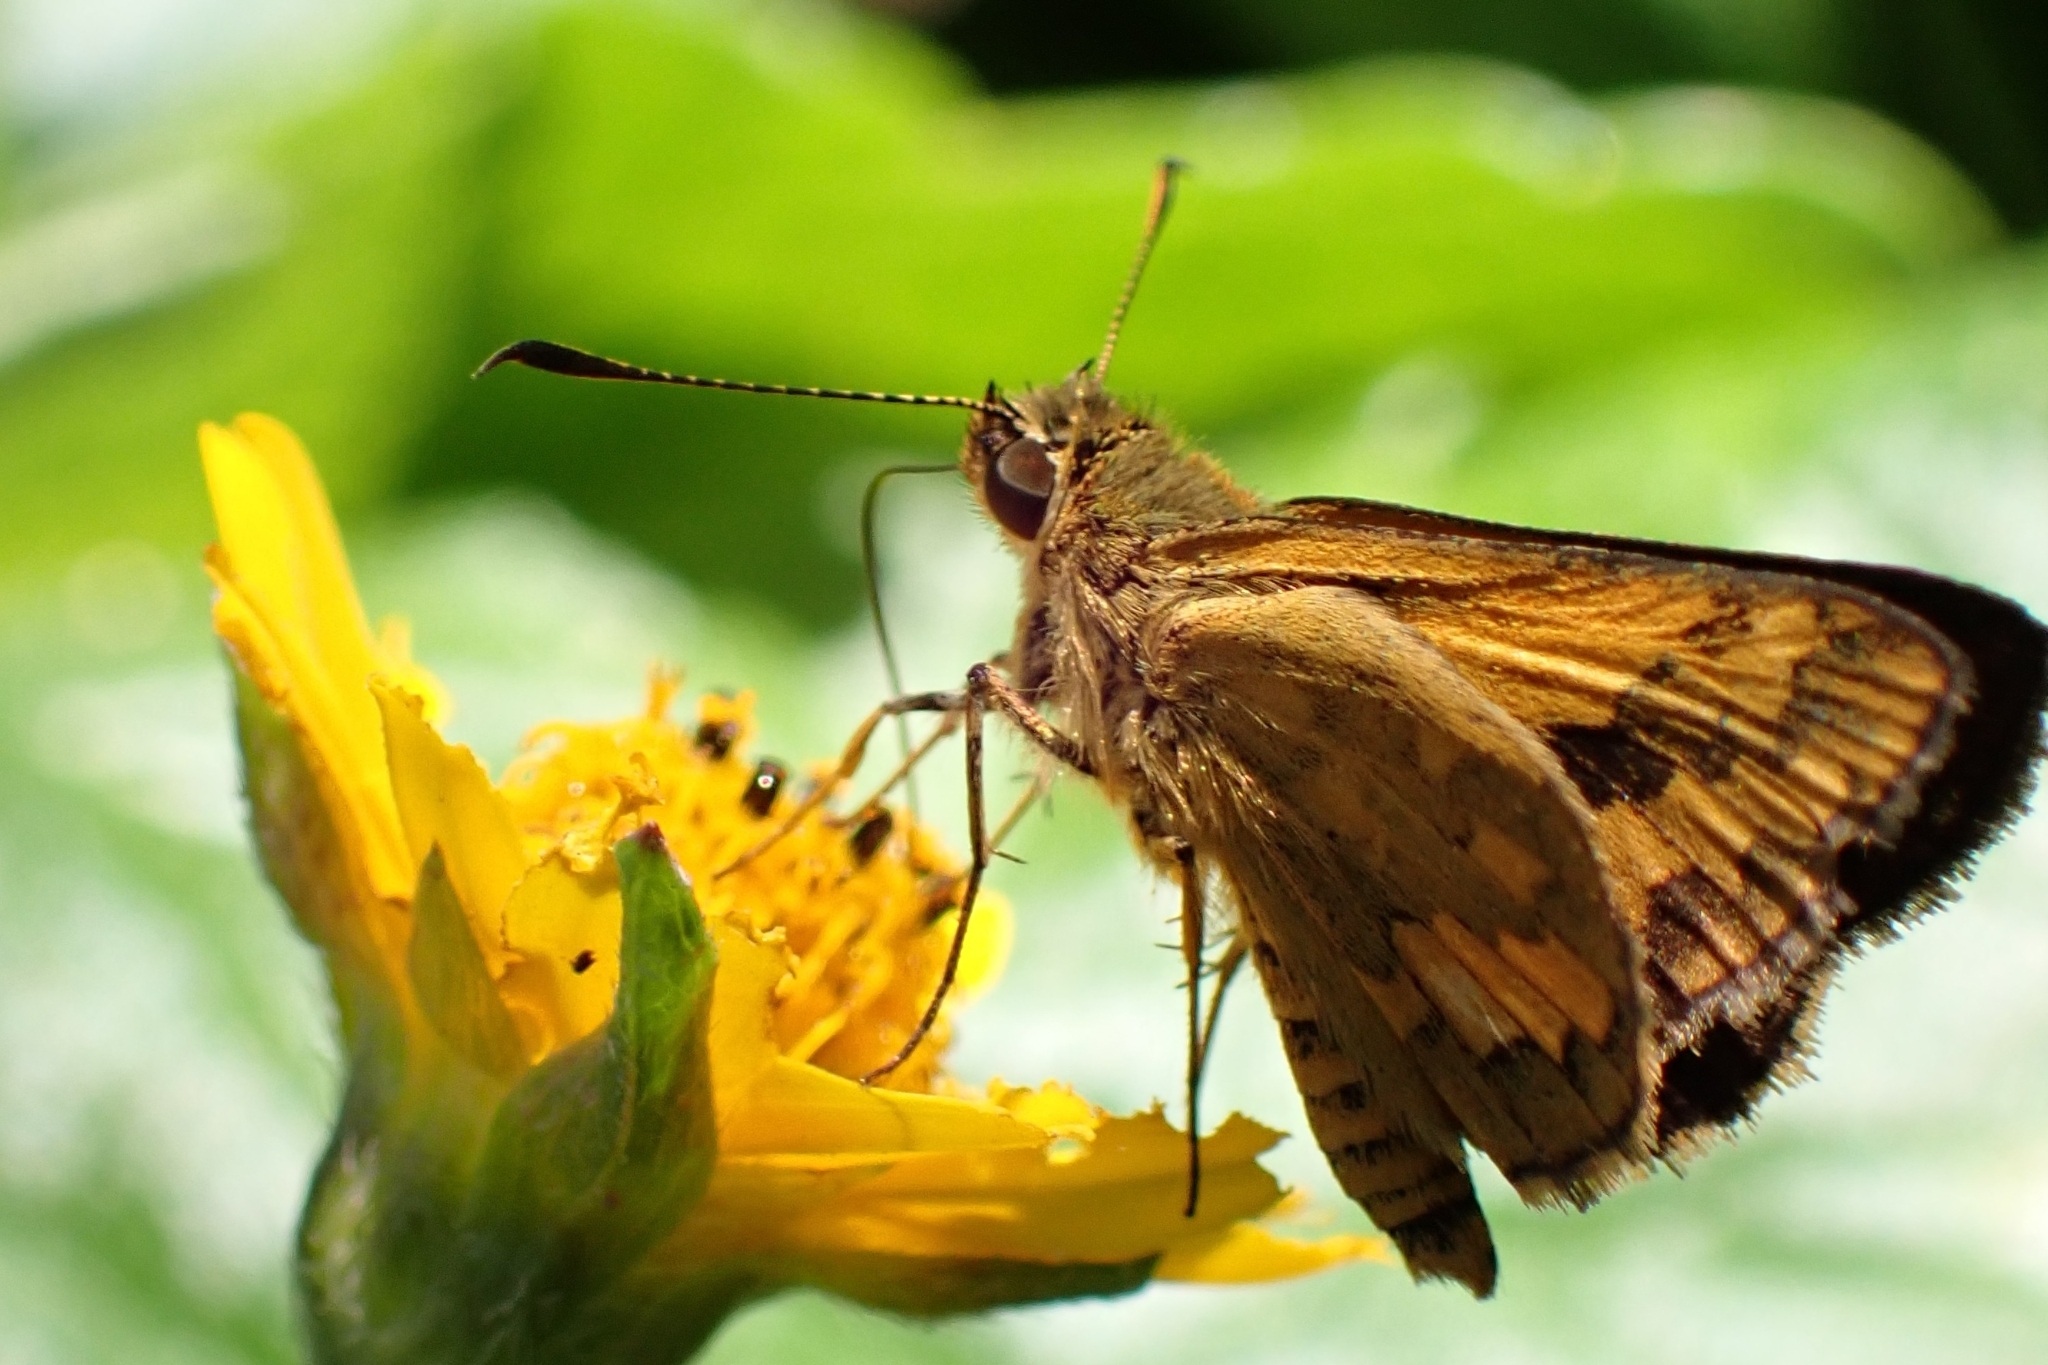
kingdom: Animalia
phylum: Arthropoda
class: Insecta
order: Lepidoptera
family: Hesperiidae
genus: Suniana
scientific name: Suniana sunias
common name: Wide-brand grass-dart
